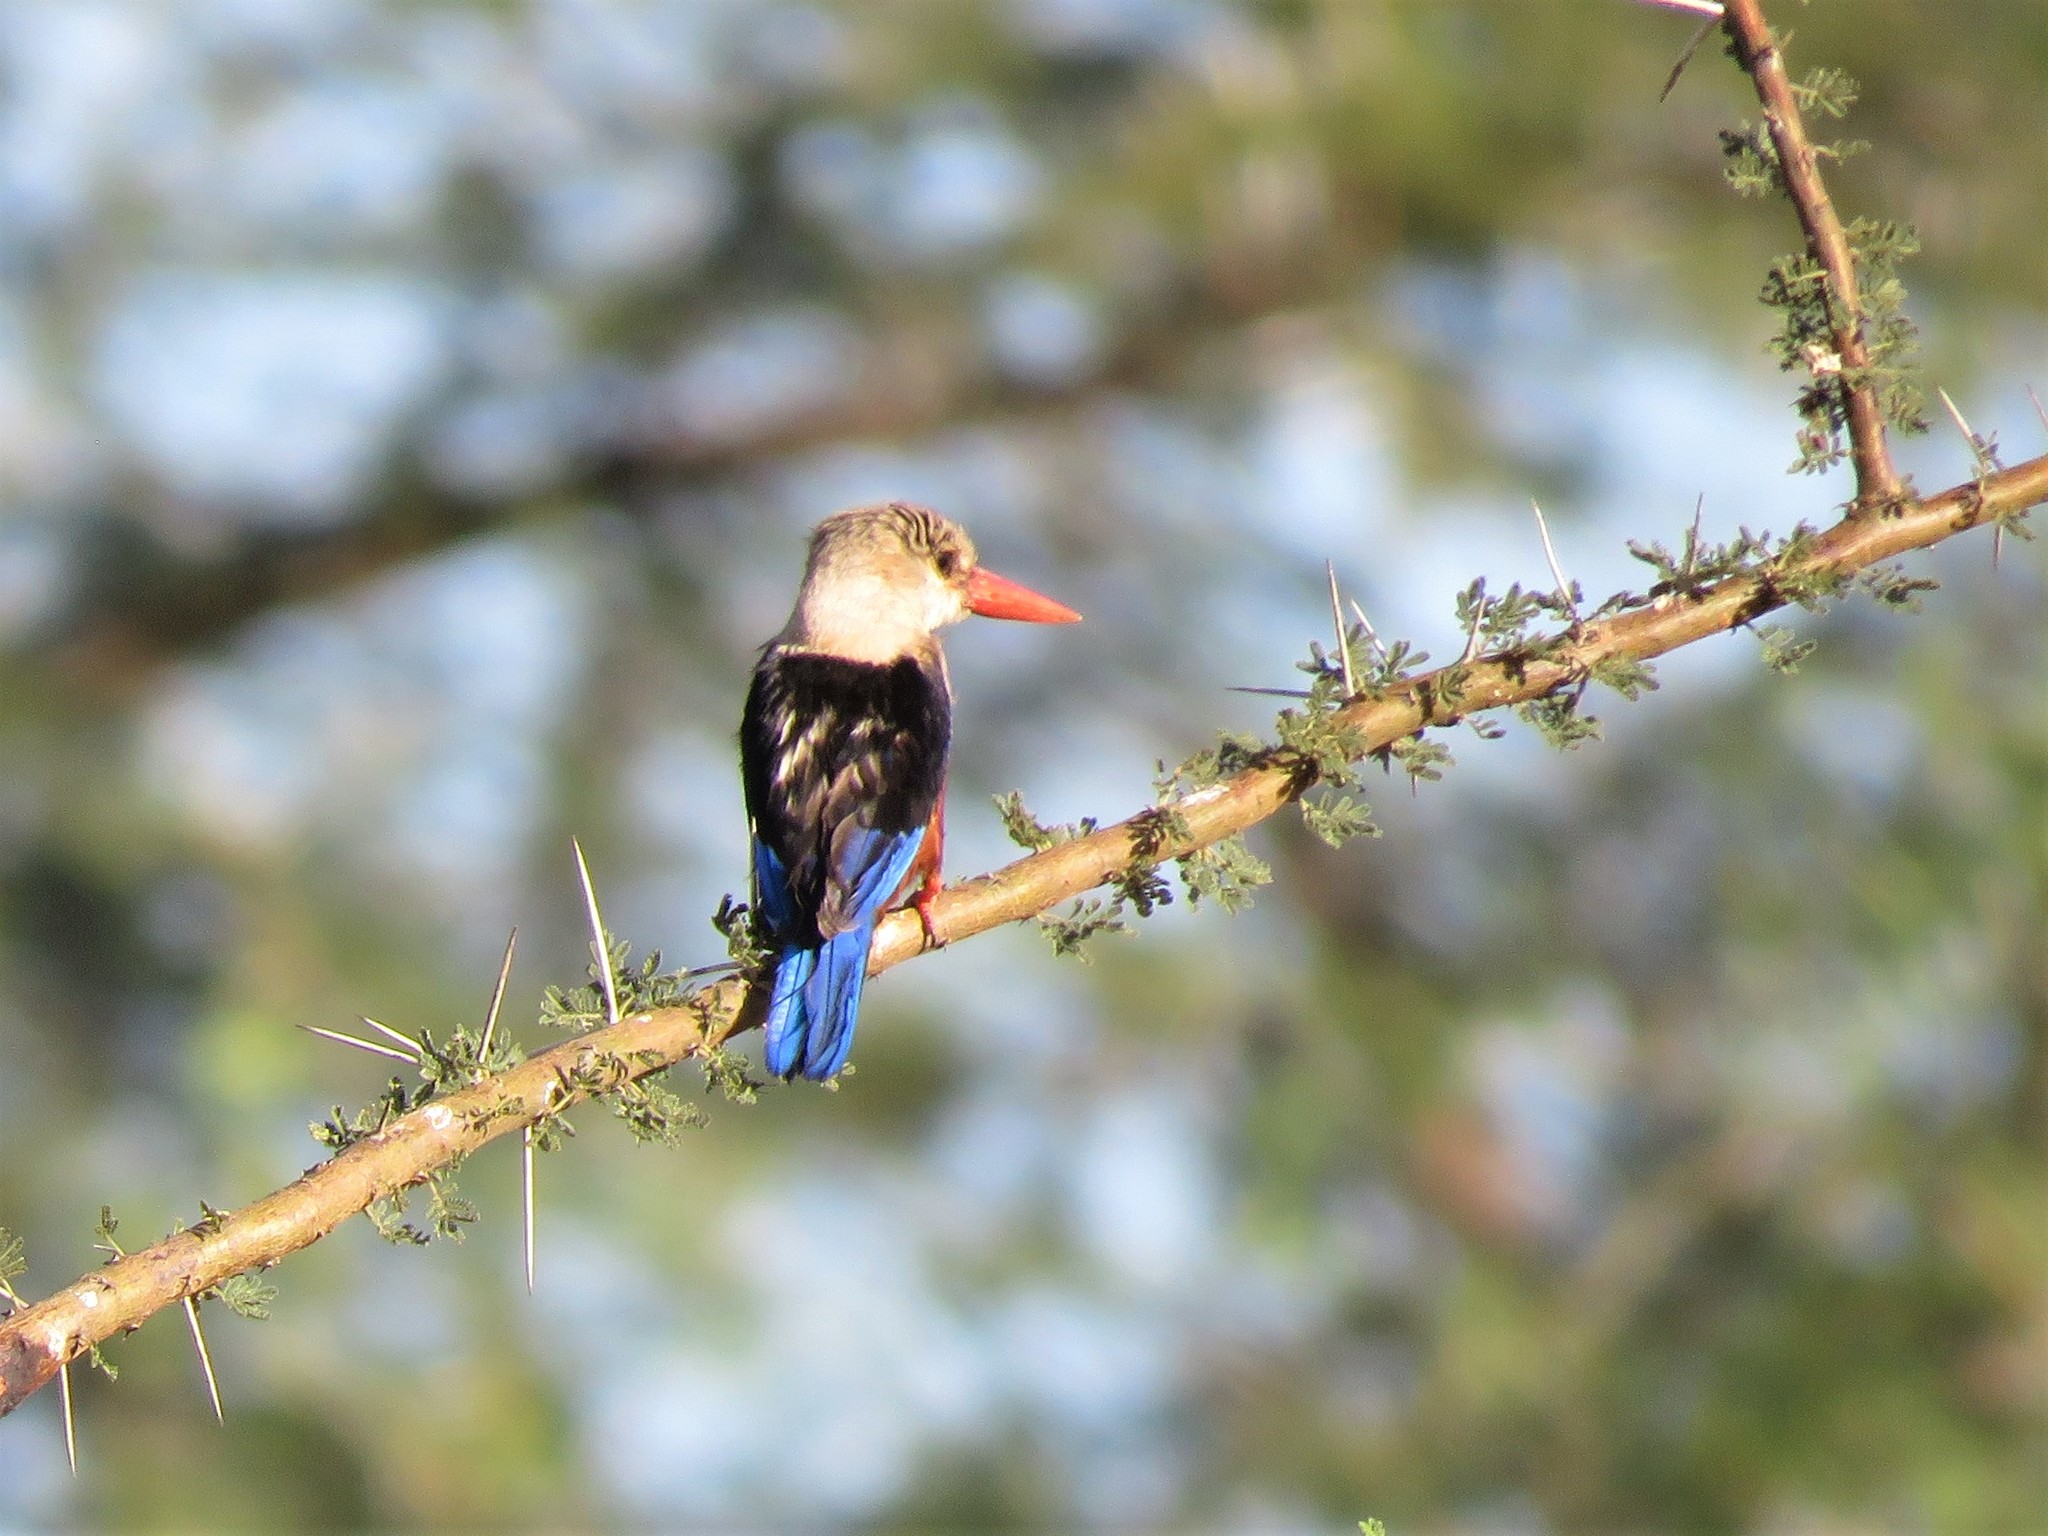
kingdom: Animalia
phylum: Chordata
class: Aves
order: Coraciiformes
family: Alcedinidae
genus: Halcyon
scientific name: Halcyon leucocephala
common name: Grey-headed kingfisher
